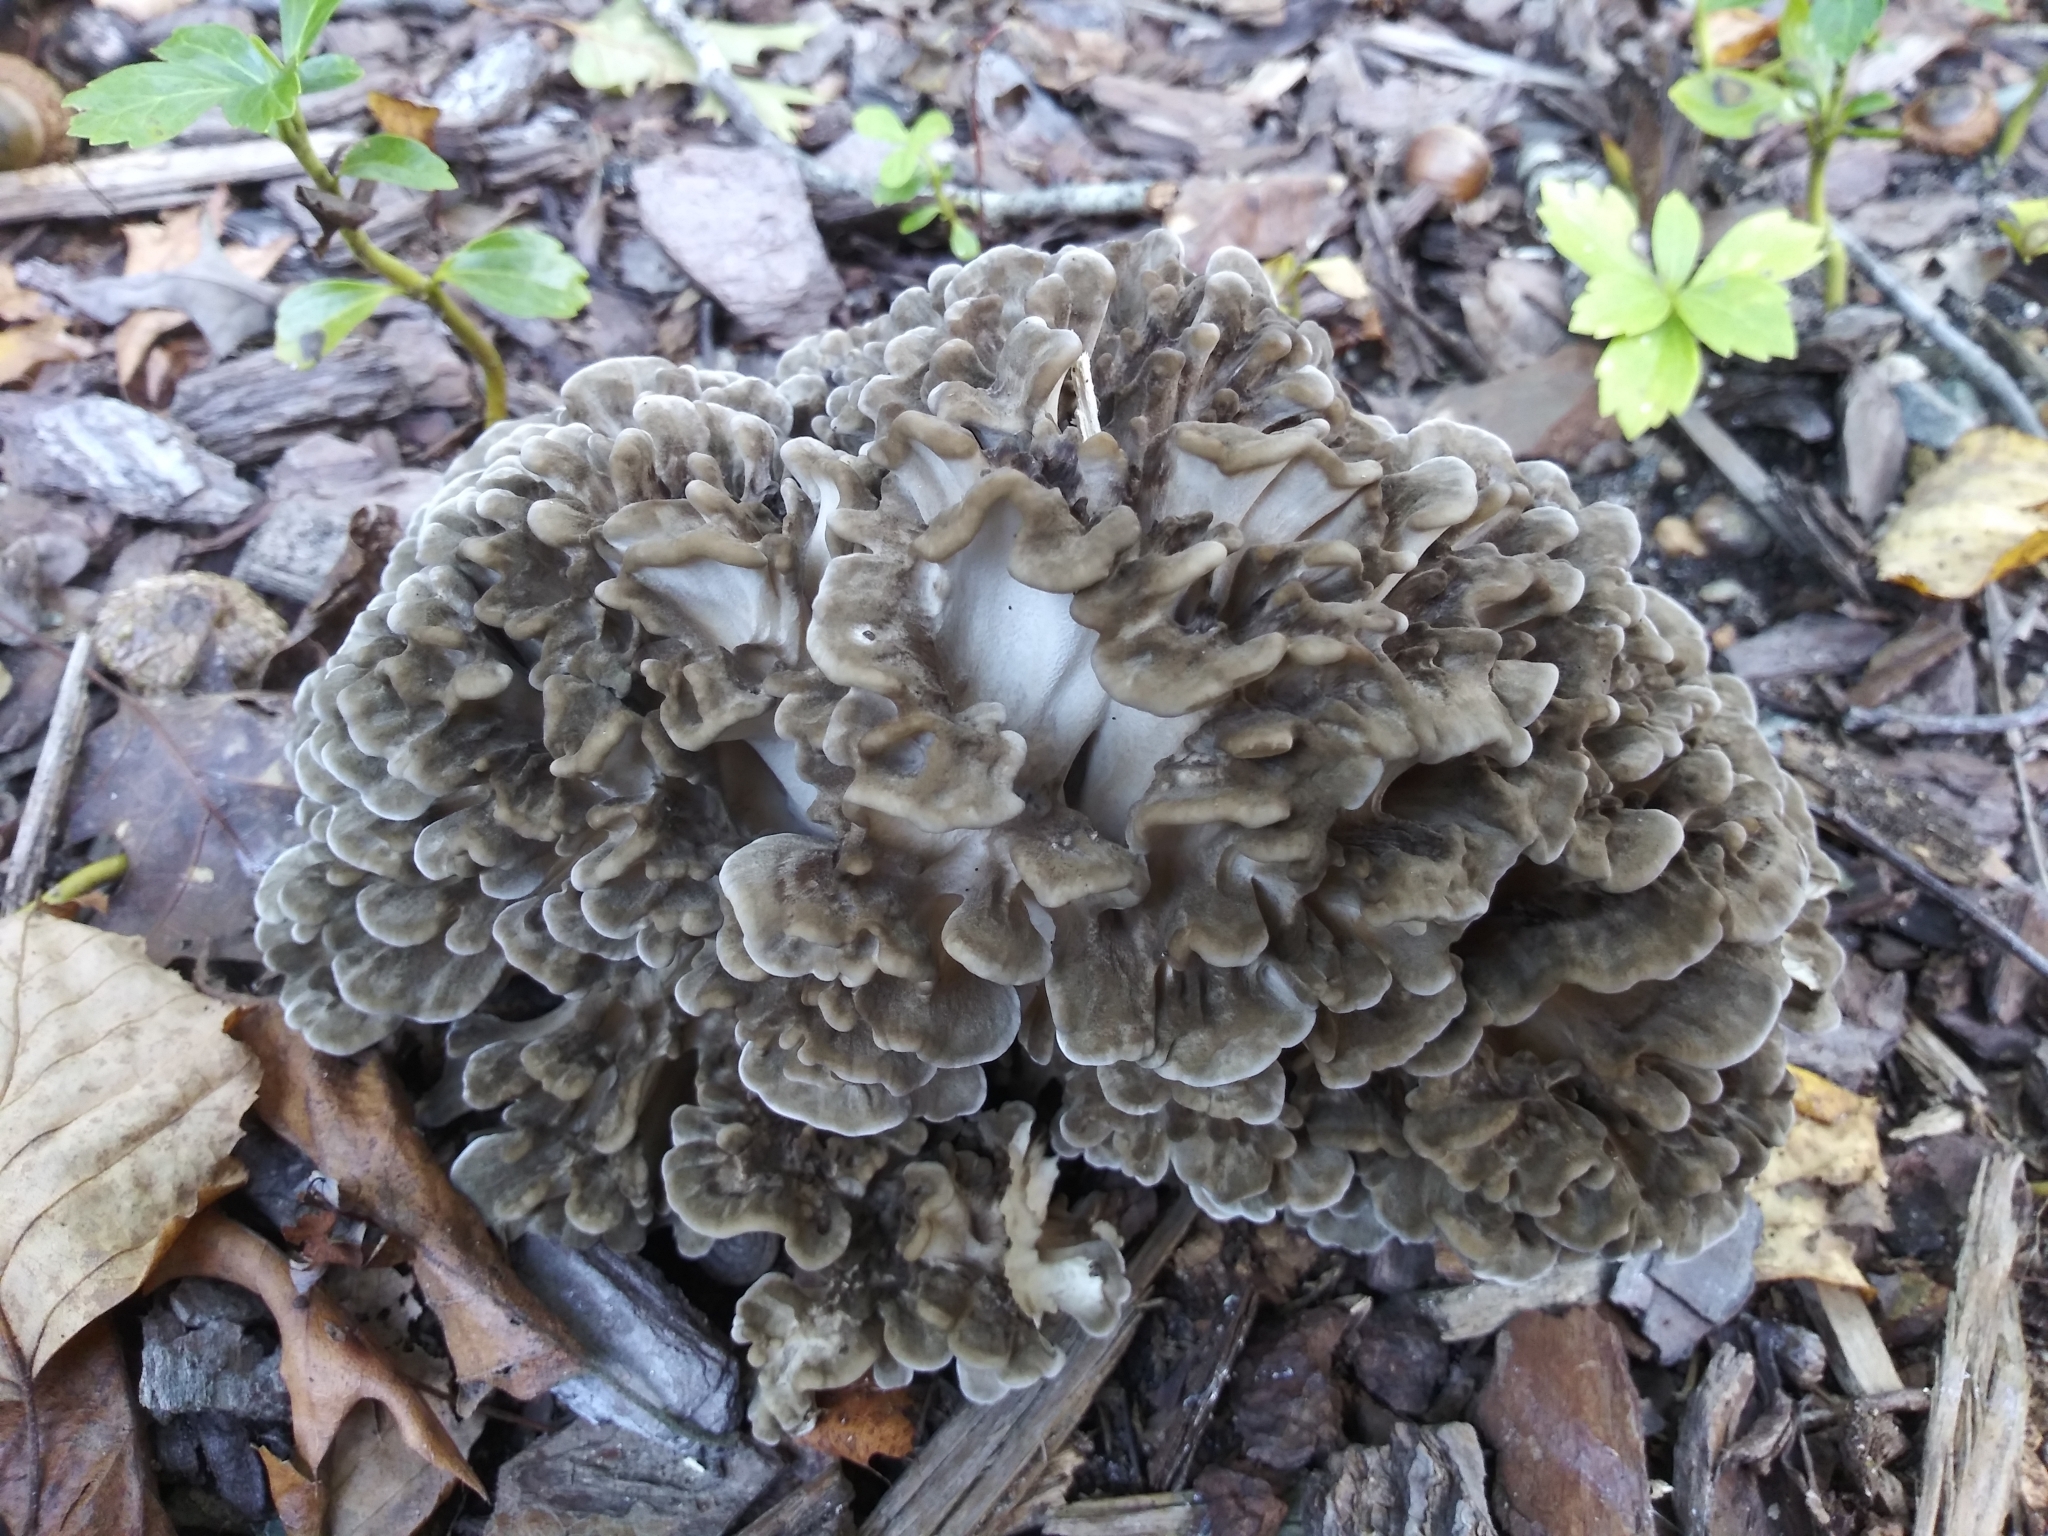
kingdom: Fungi
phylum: Basidiomycota
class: Agaricomycetes
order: Polyporales
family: Grifolaceae
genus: Grifola
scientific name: Grifola frondosa
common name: Hen of the woods
